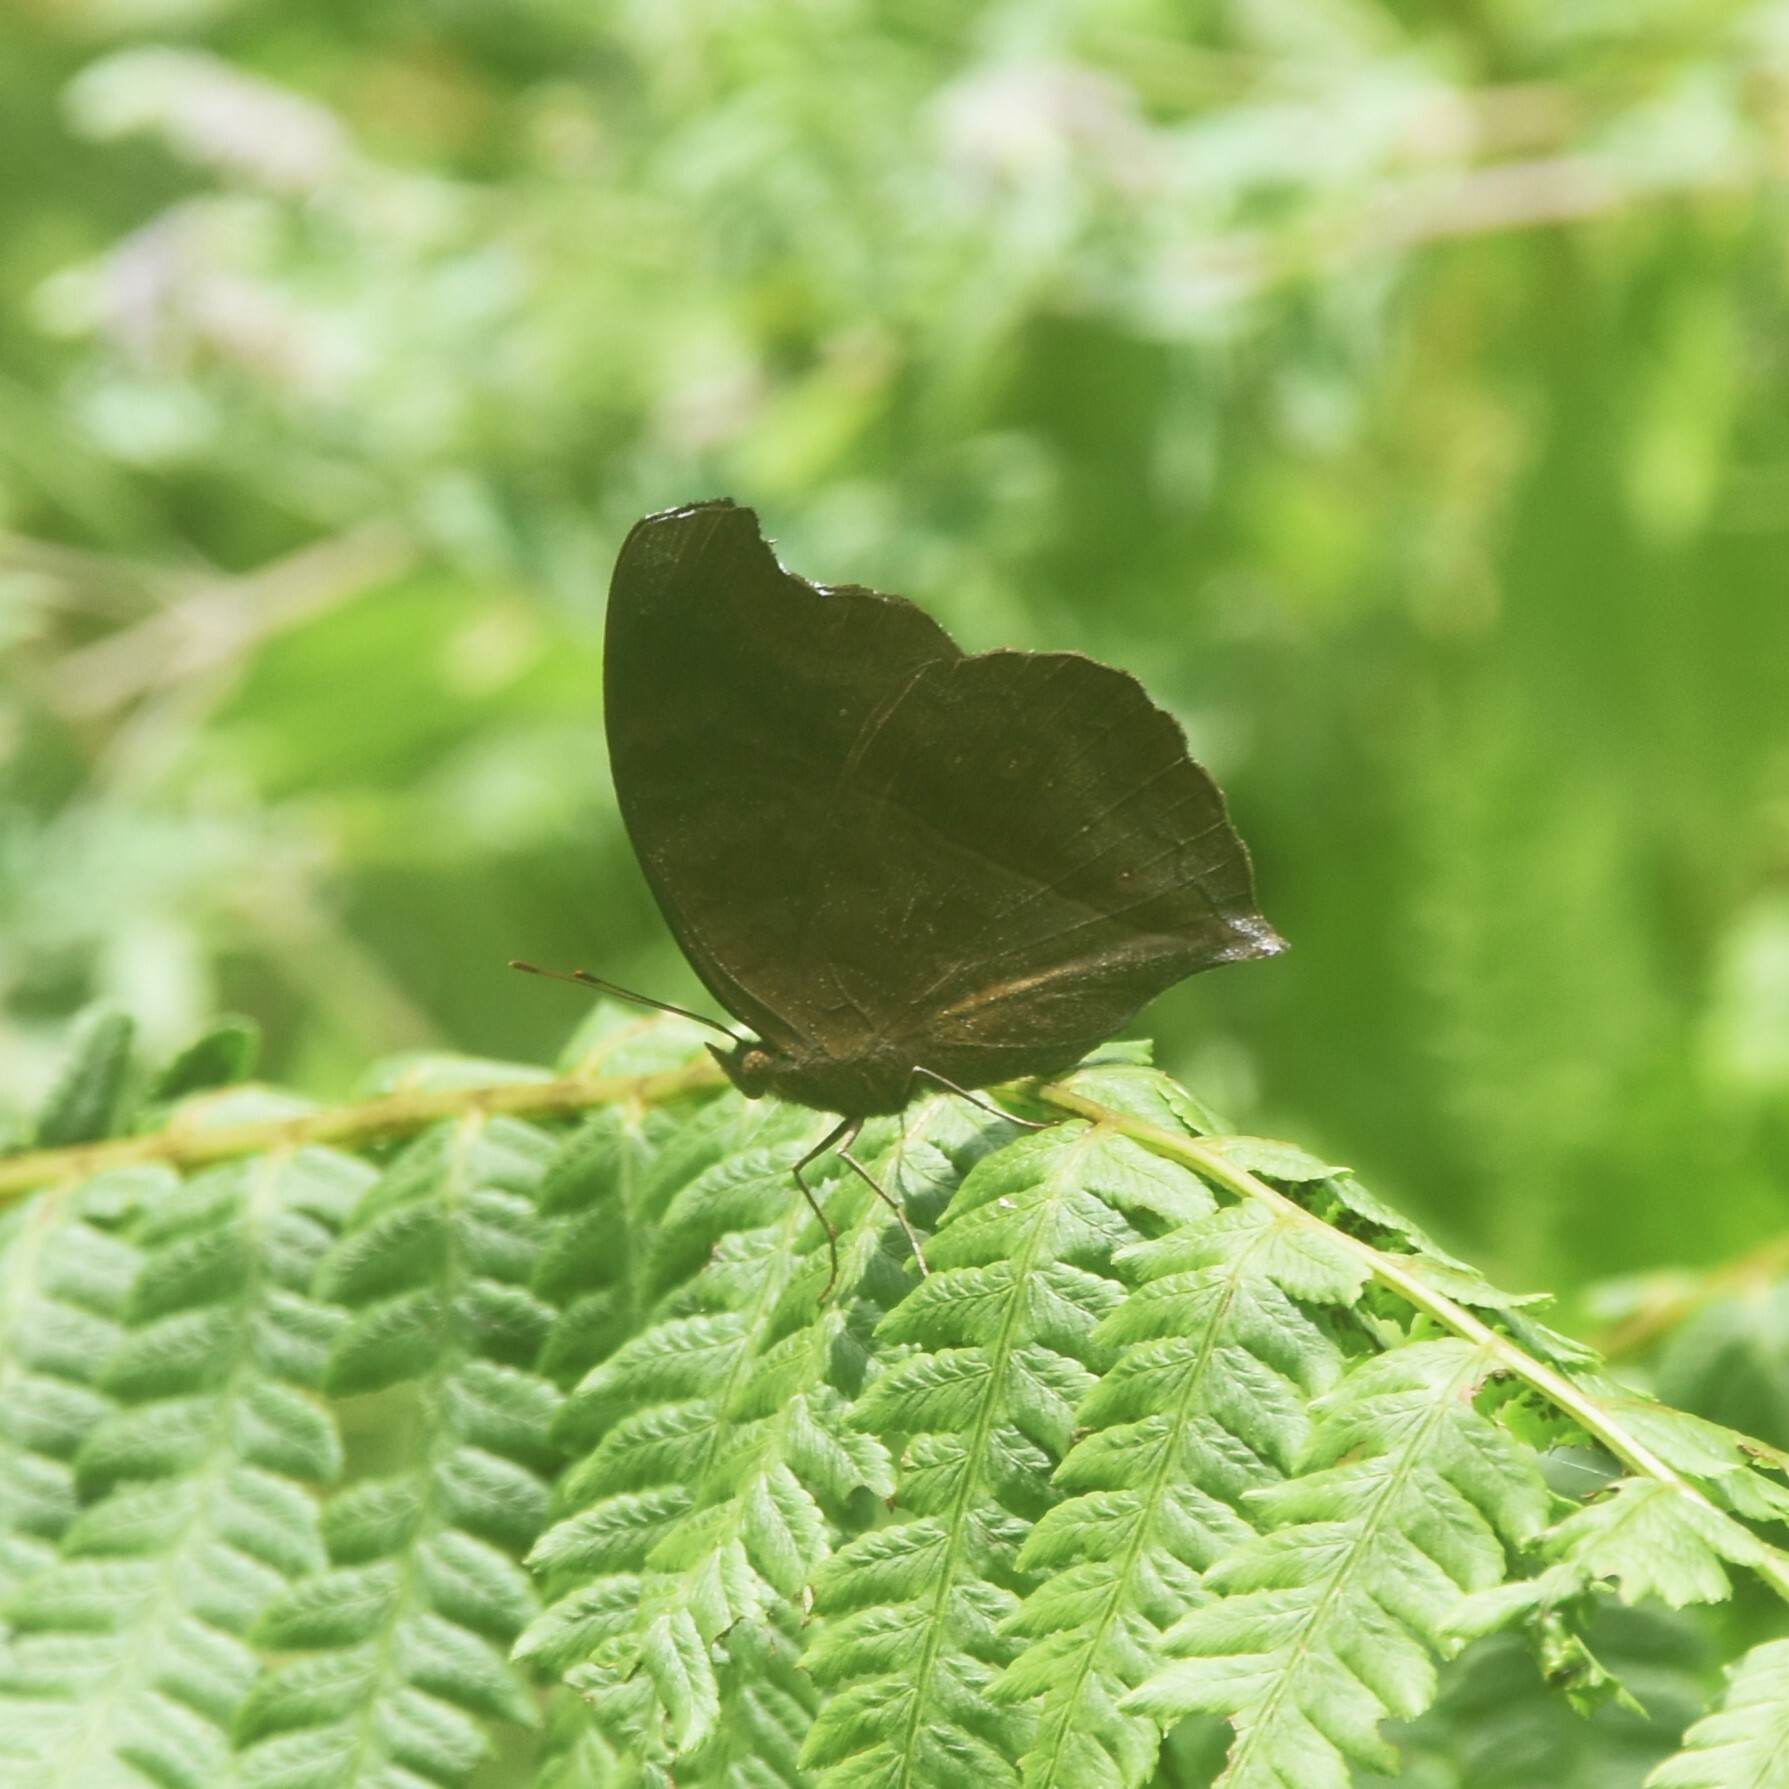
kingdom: Animalia
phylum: Arthropoda
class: Insecta
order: Lepidoptera
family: Nymphalidae
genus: Junonia
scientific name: Junonia iphita
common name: Chocolate pansy
